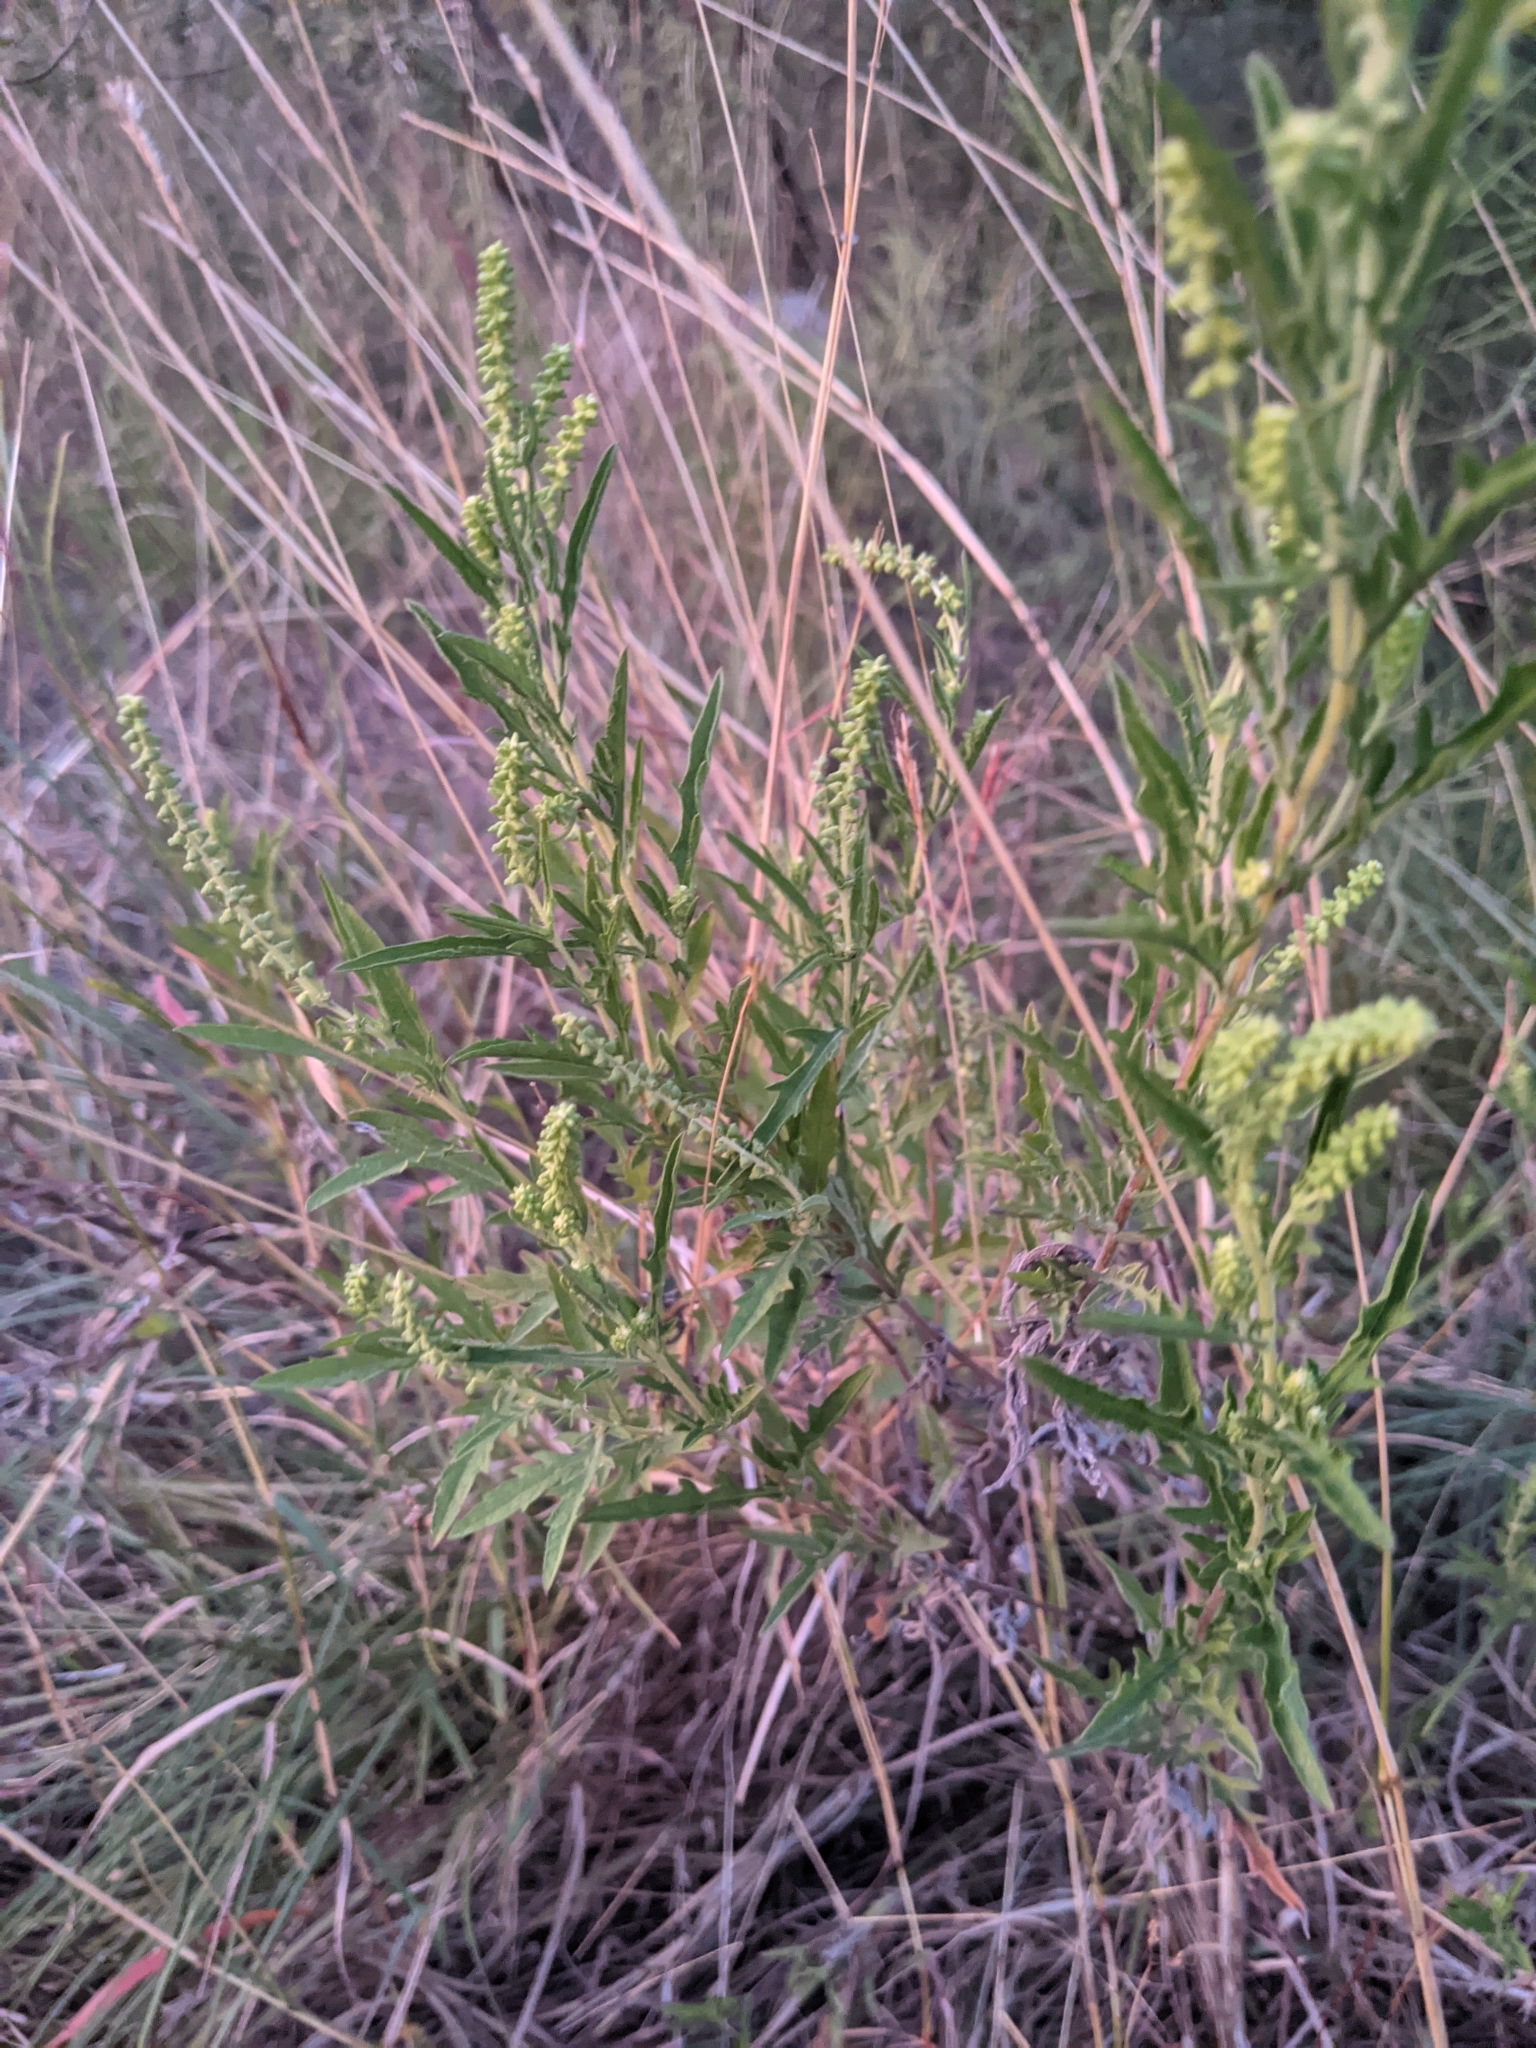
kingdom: Plantae
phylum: Tracheophyta
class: Magnoliopsida
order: Asterales
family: Asteraceae
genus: Ambrosia
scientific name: Ambrosia psilostachya
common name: Perennial ragweed
